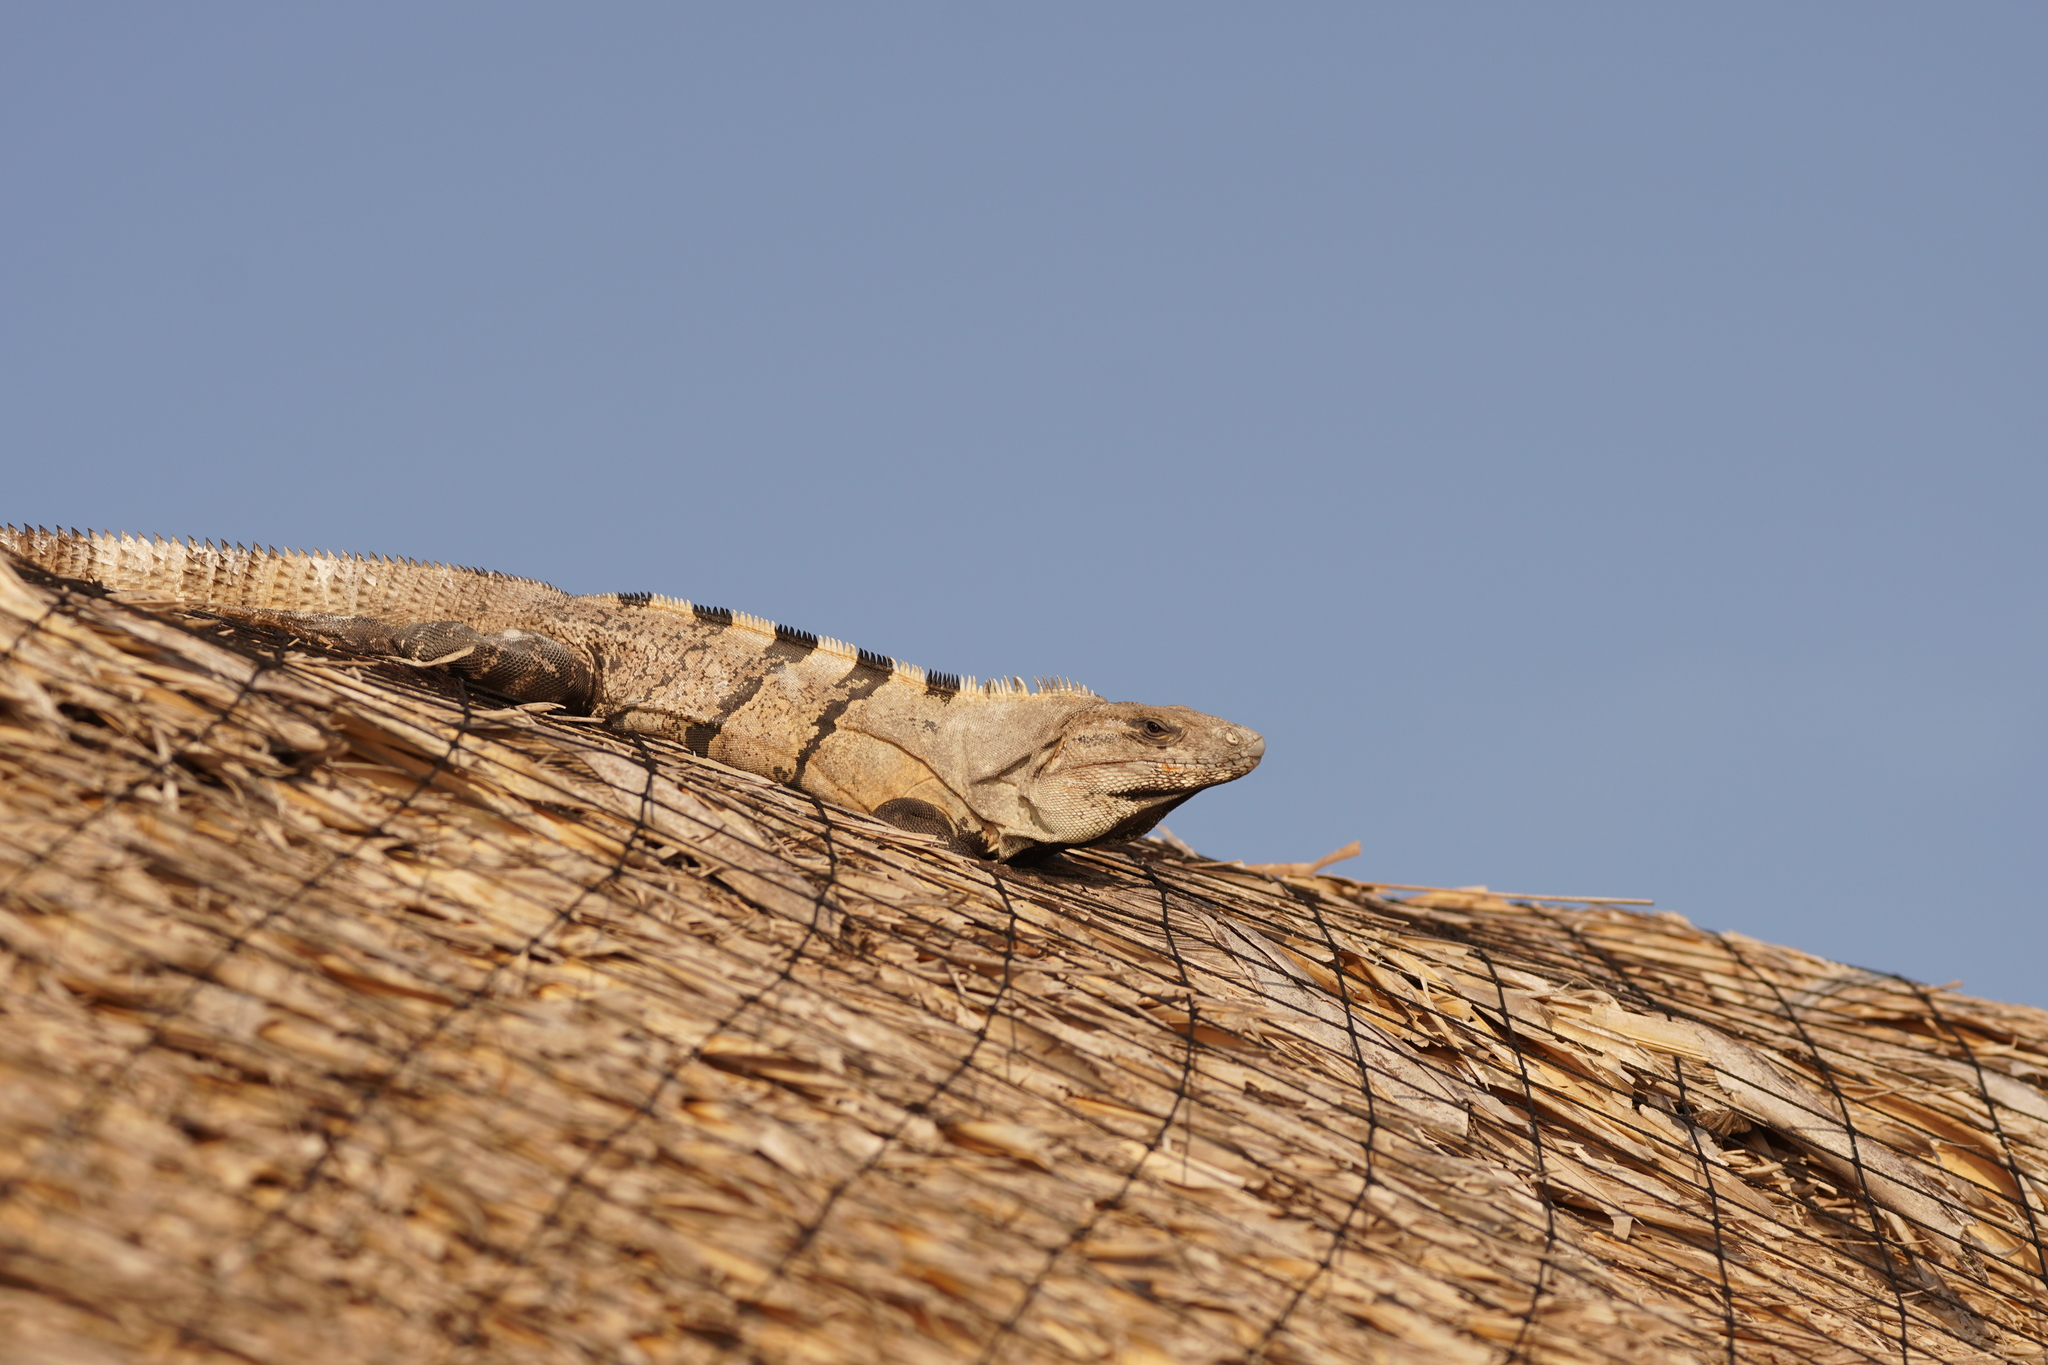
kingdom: Animalia
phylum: Chordata
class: Squamata
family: Iguanidae
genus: Ctenosaura
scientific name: Ctenosaura similis
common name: Black spiny-tailed iguana
